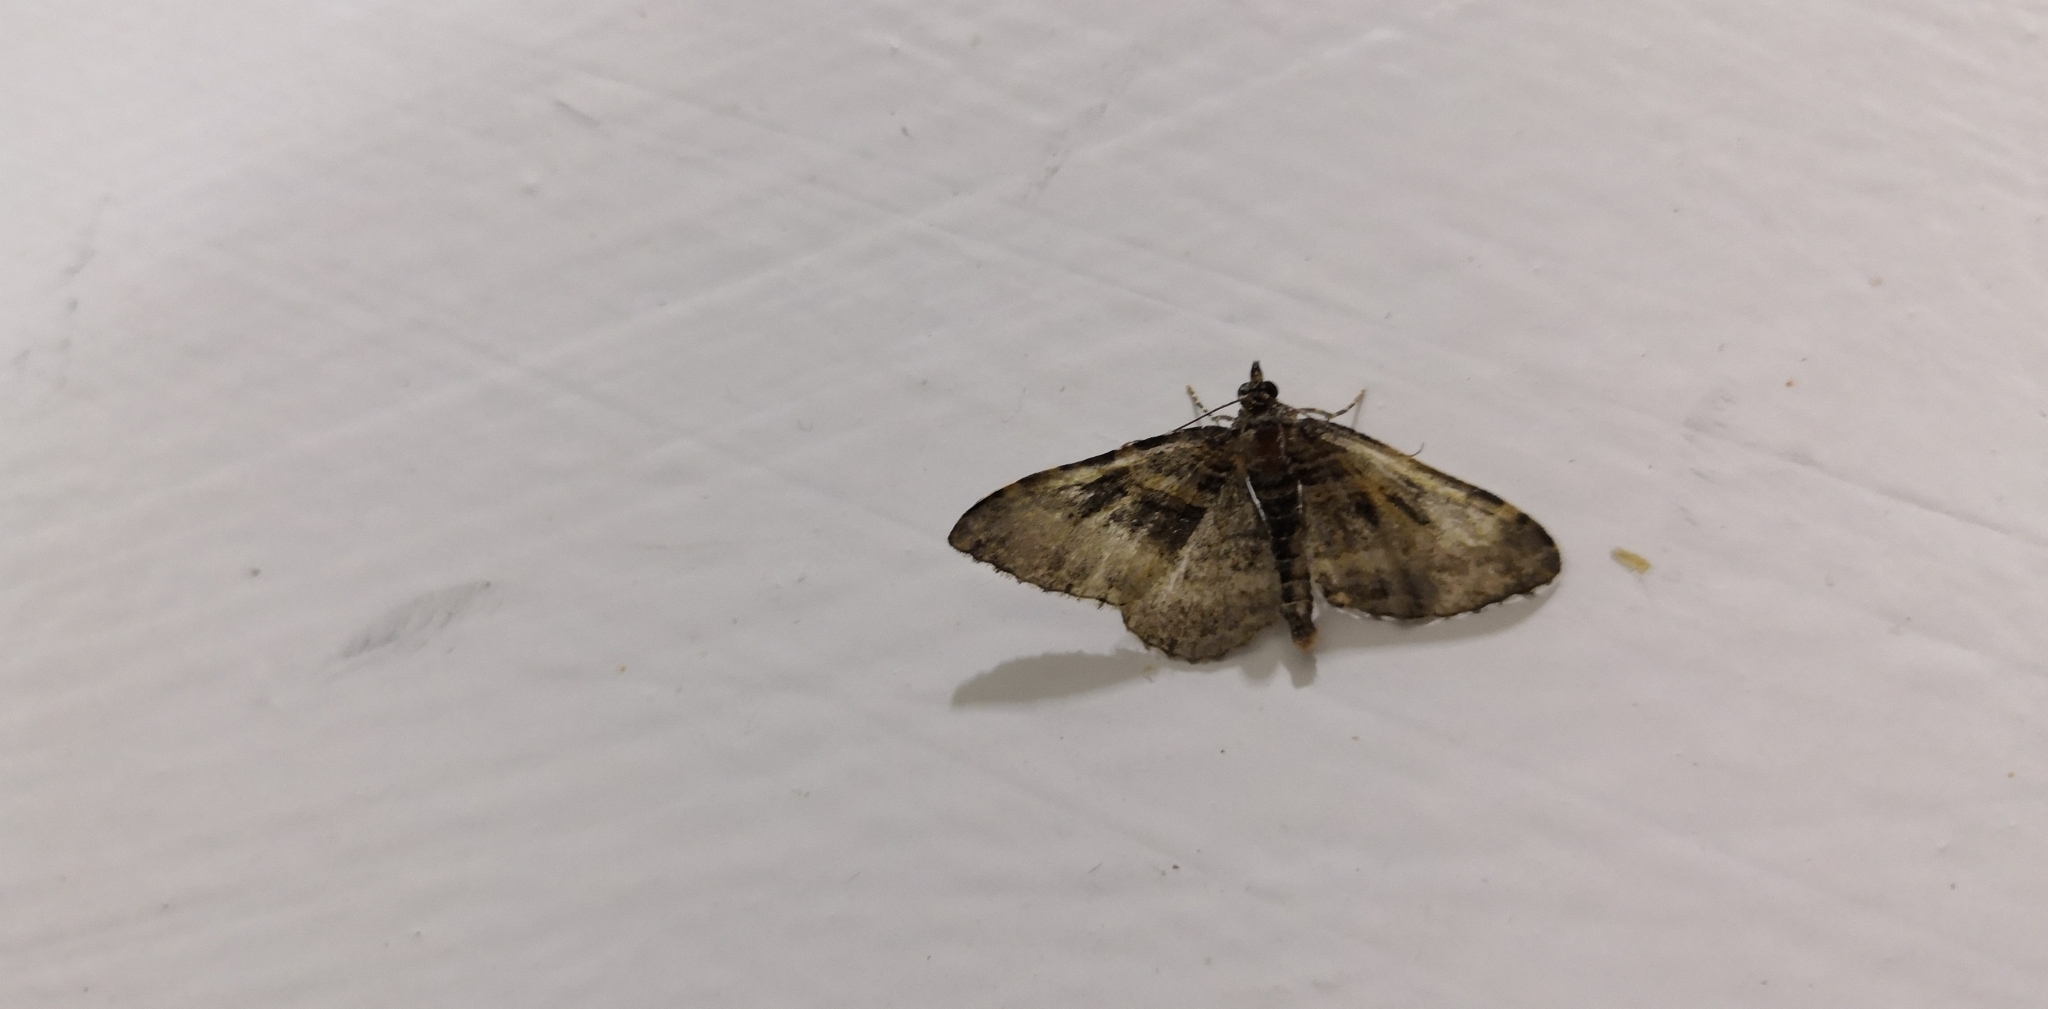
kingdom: Animalia
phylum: Arthropoda
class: Insecta
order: Lepidoptera
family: Geometridae
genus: Epyaxa
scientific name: Epyaxa lucidata
